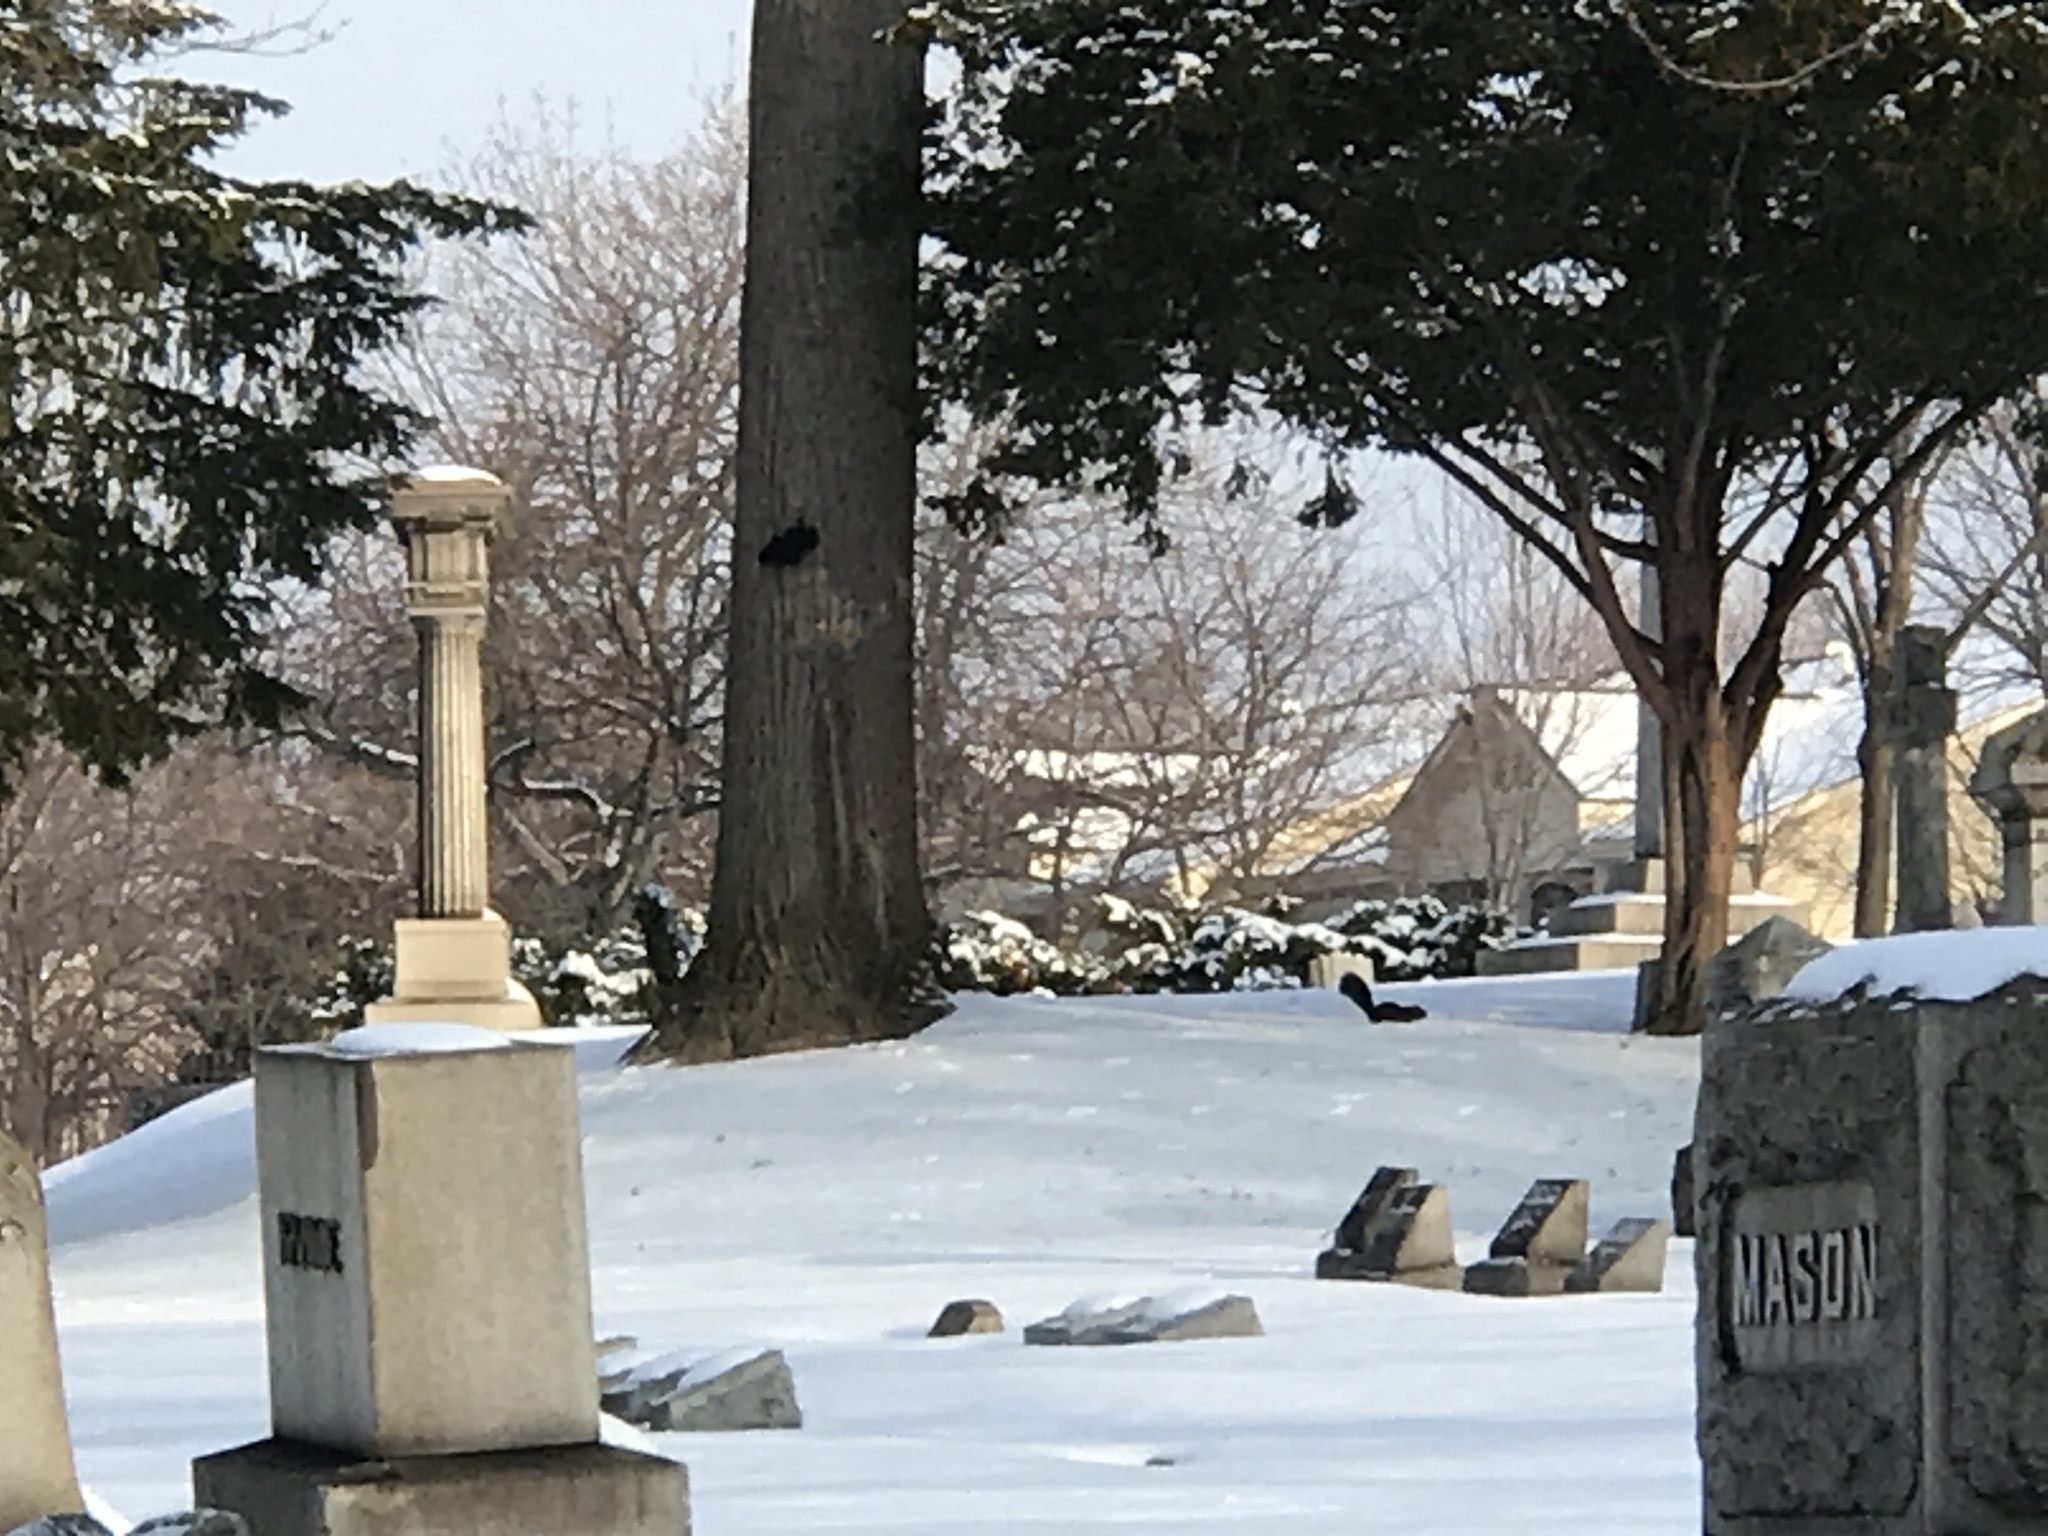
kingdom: Animalia
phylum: Chordata
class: Mammalia
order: Rodentia
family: Sciuridae
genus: Sciurus
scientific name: Sciurus carolinensis
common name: Eastern gray squirrel
